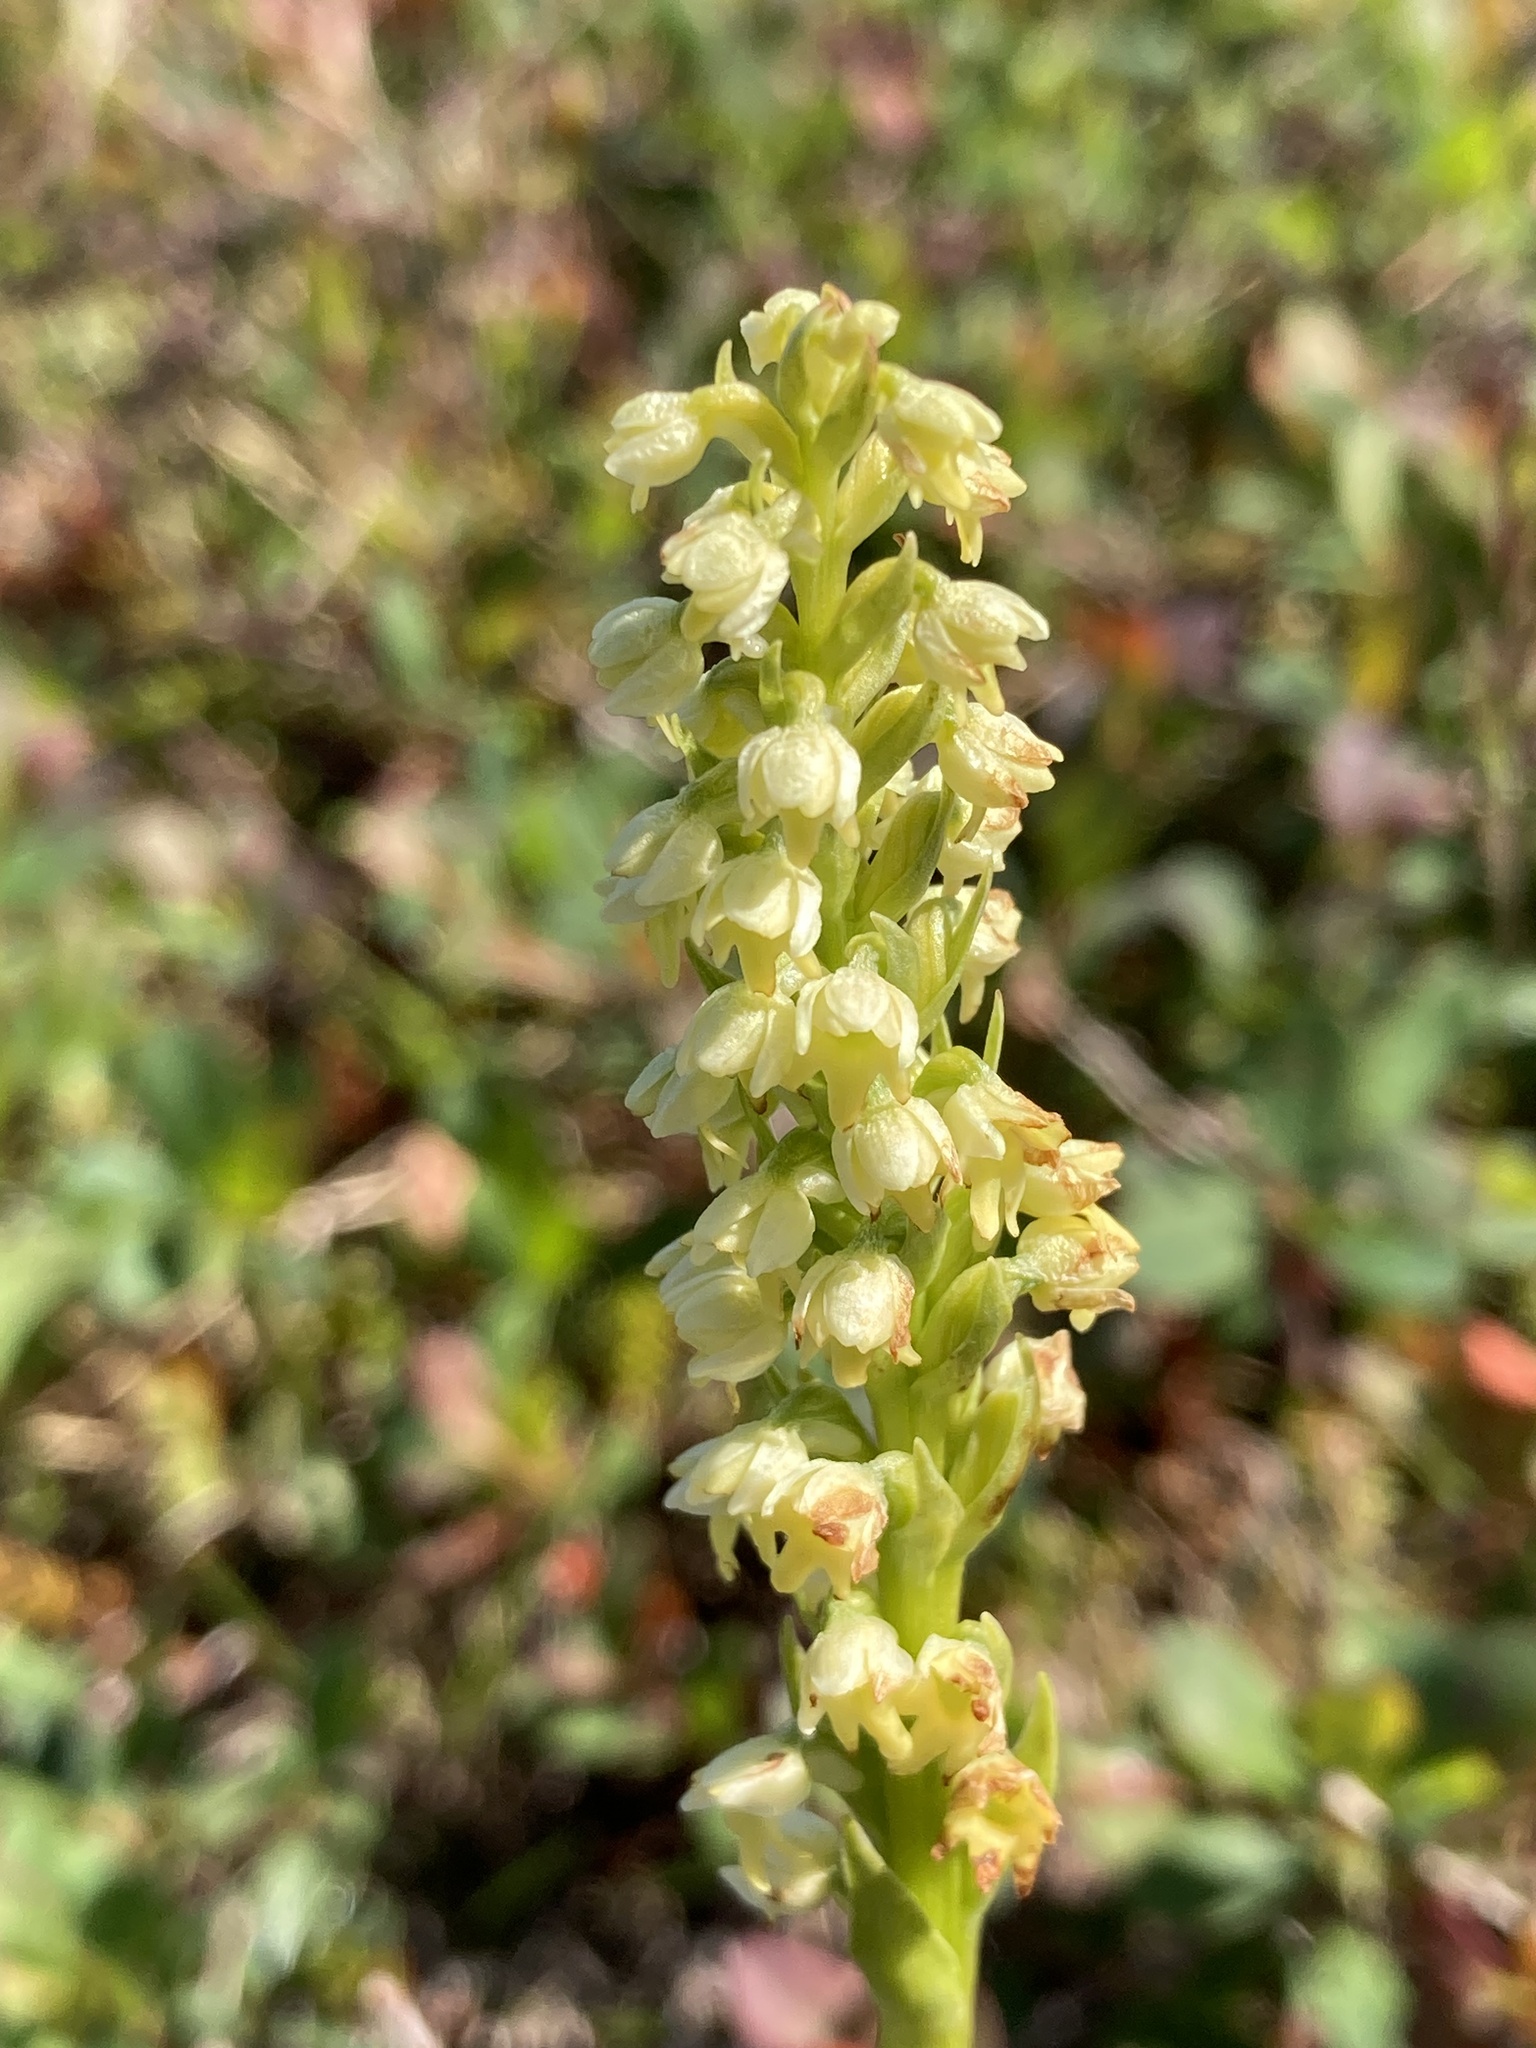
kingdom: Plantae
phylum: Tracheophyta
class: Liliopsida
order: Asparagales
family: Orchidaceae
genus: Pseudorchis
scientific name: Pseudorchis albida
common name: Small-white orchid
